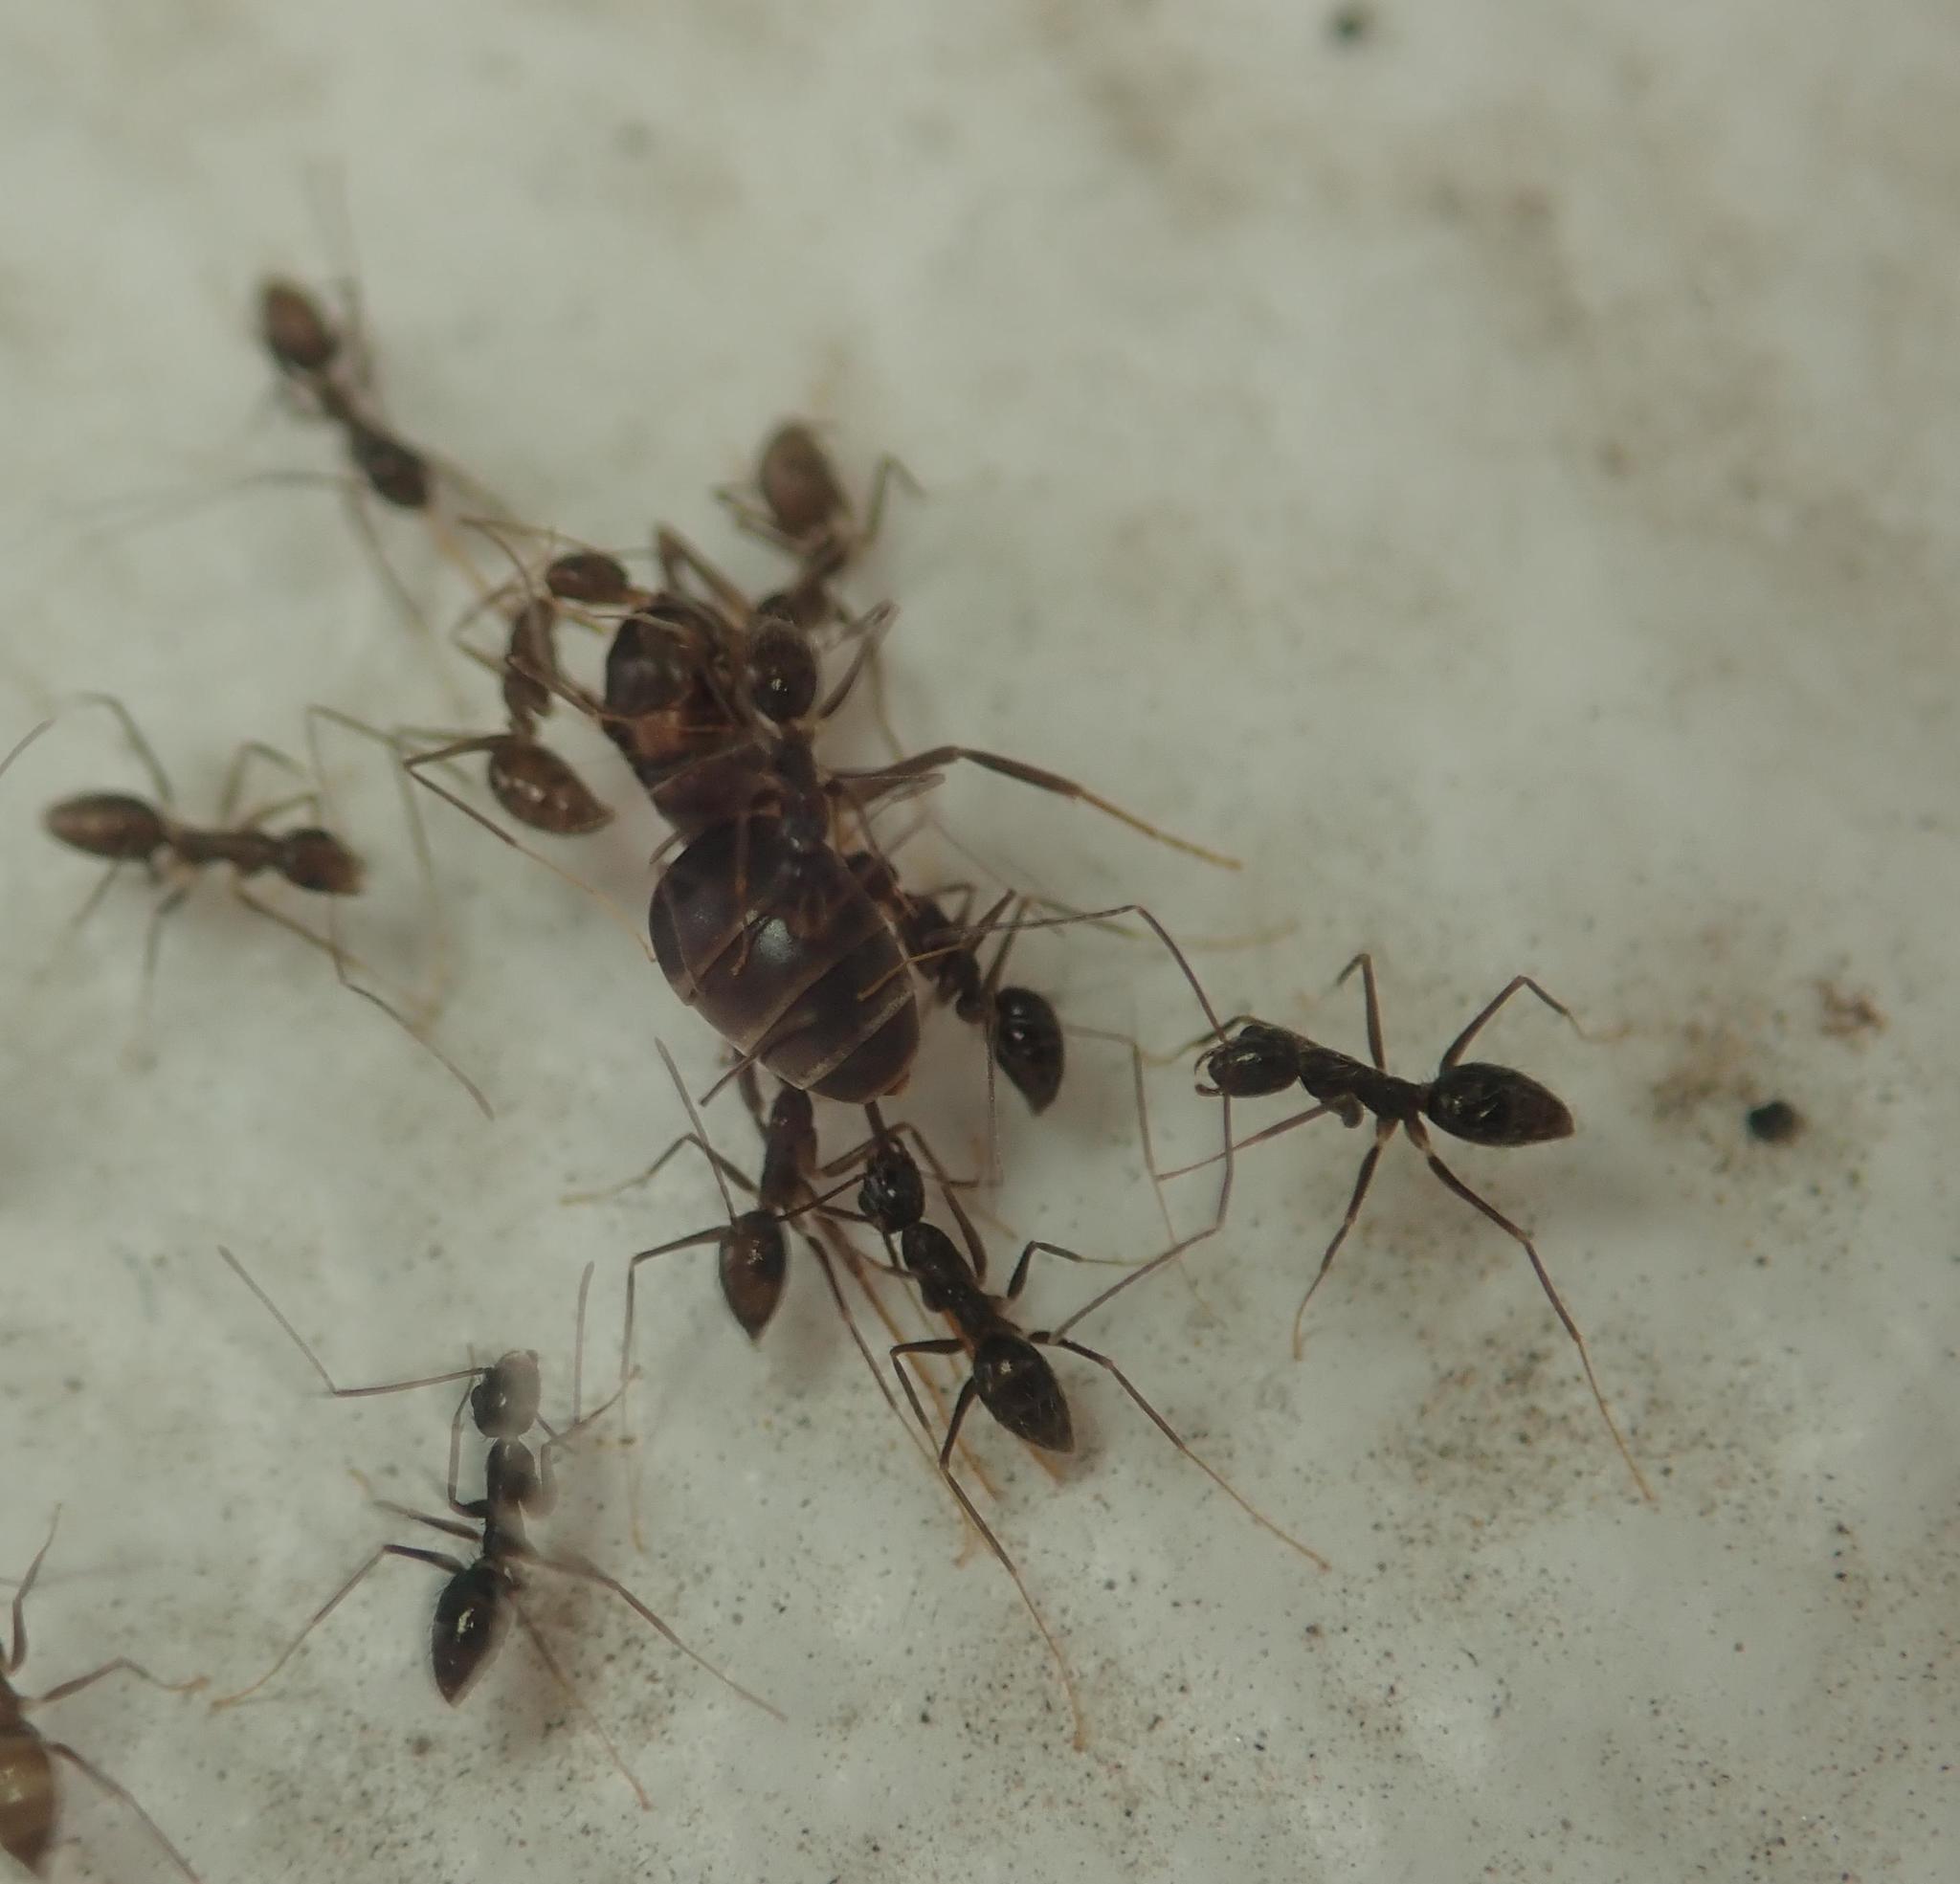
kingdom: Animalia
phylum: Arthropoda
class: Insecta
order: Hymenoptera
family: Formicidae
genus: Paratrechina
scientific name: Paratrechina longicornis
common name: Longhorned crazy ant
